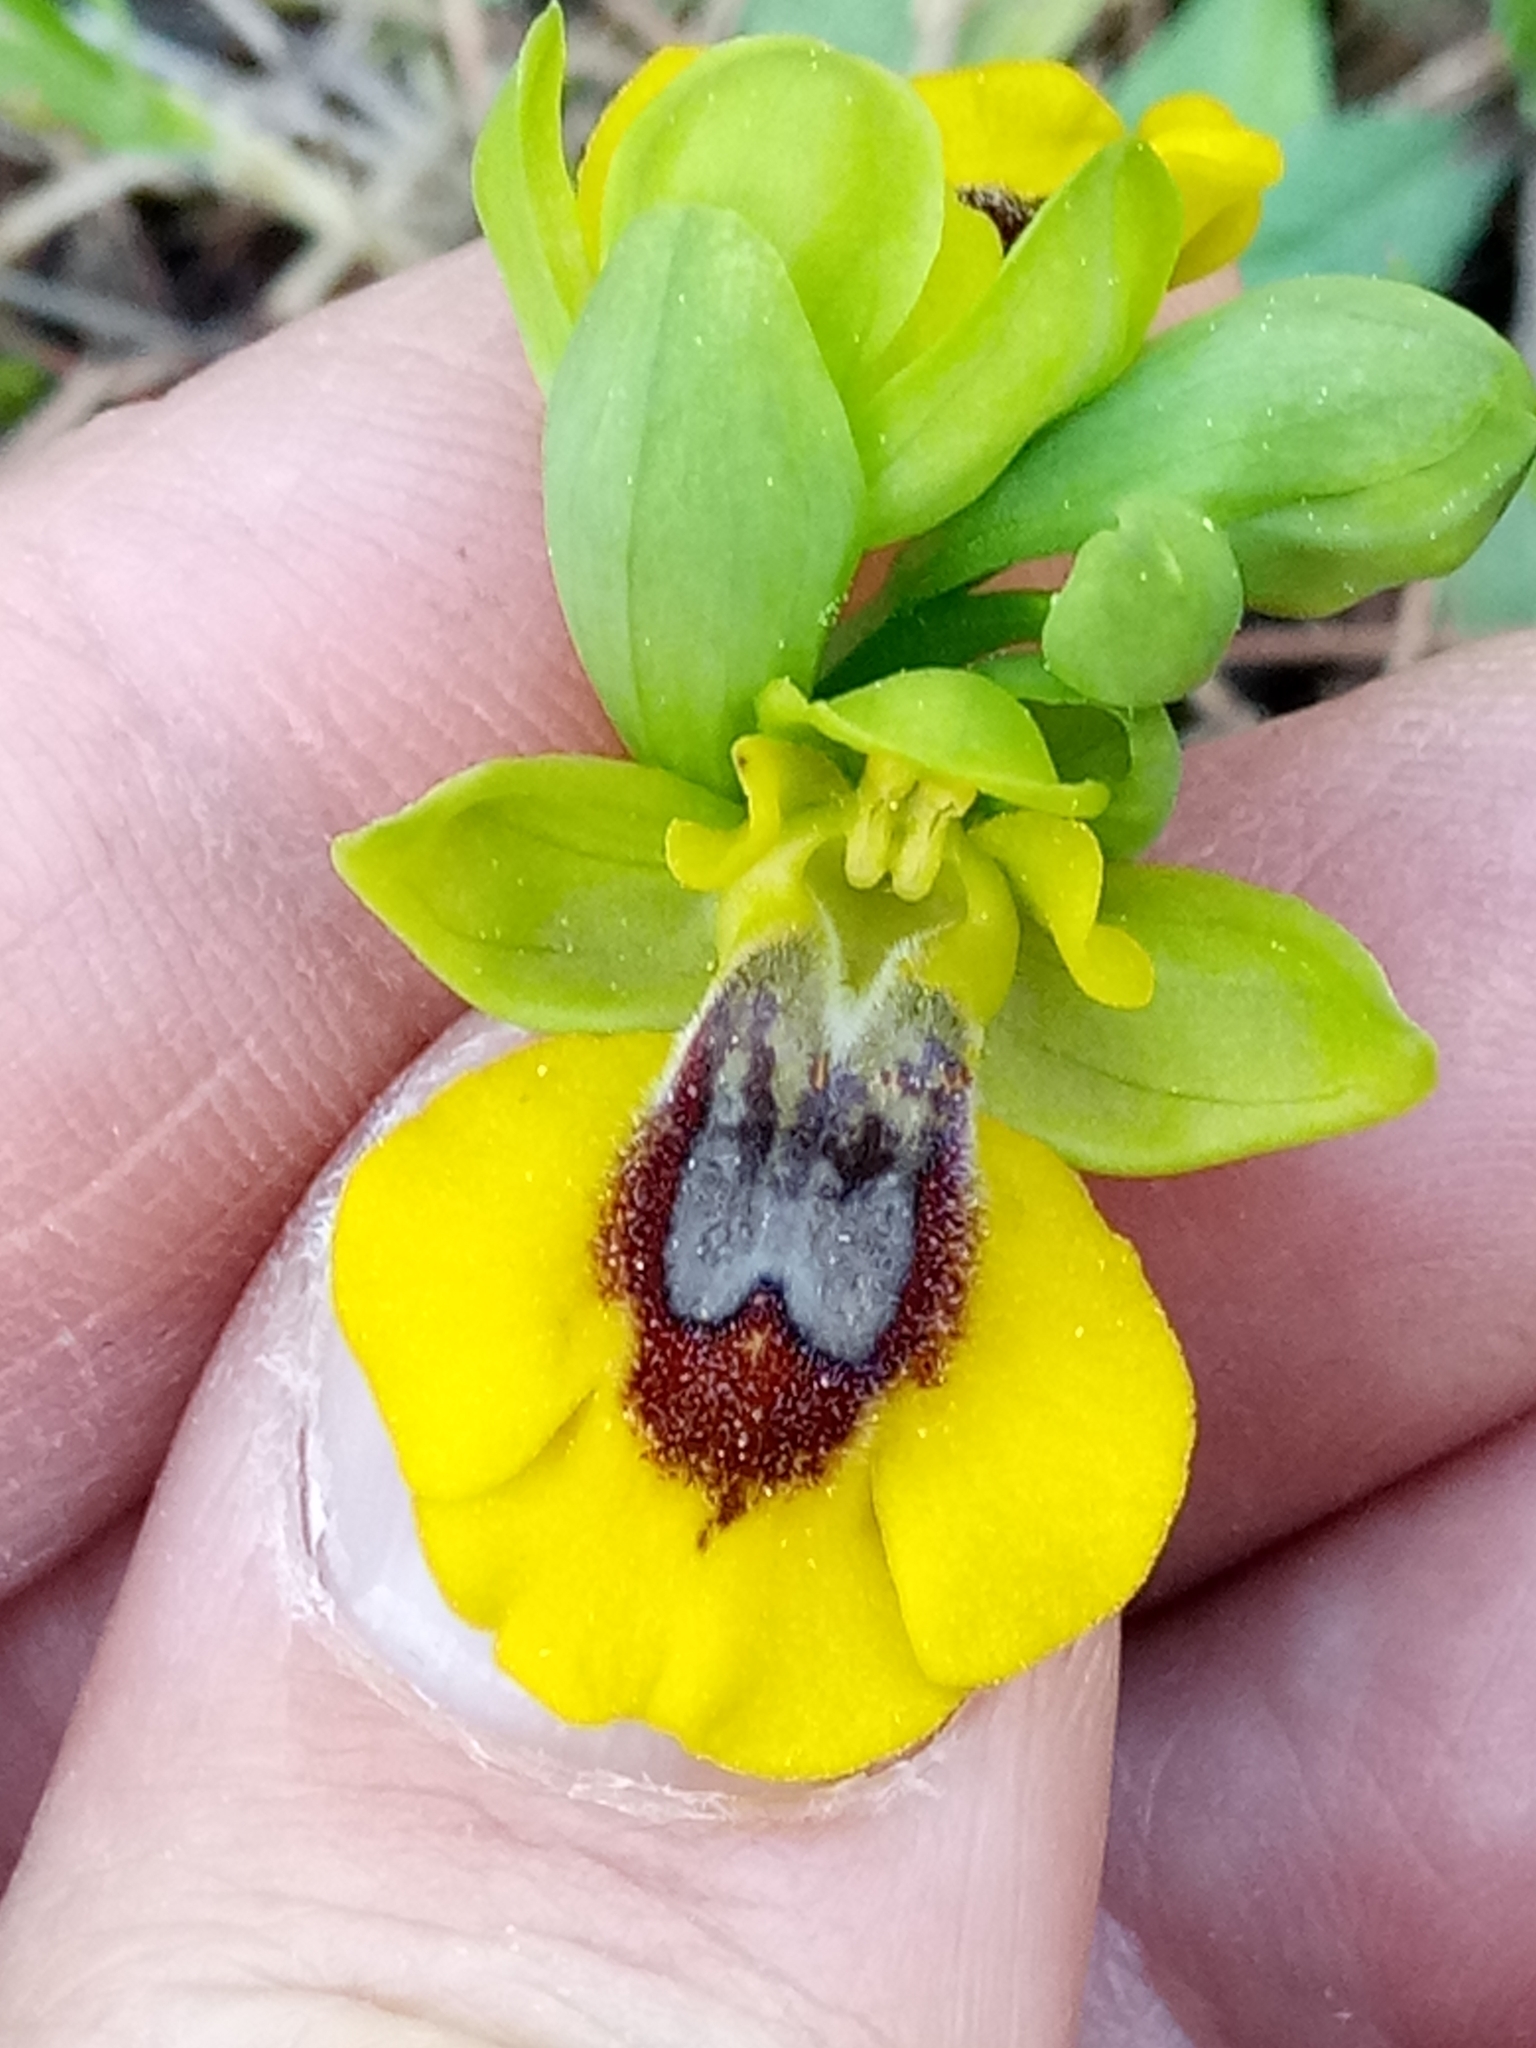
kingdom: Plantae
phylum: Tracheophyta
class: Liliopsida
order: Asparagales
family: Orchidaceae
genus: Ophrys
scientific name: Ophrys lutea
